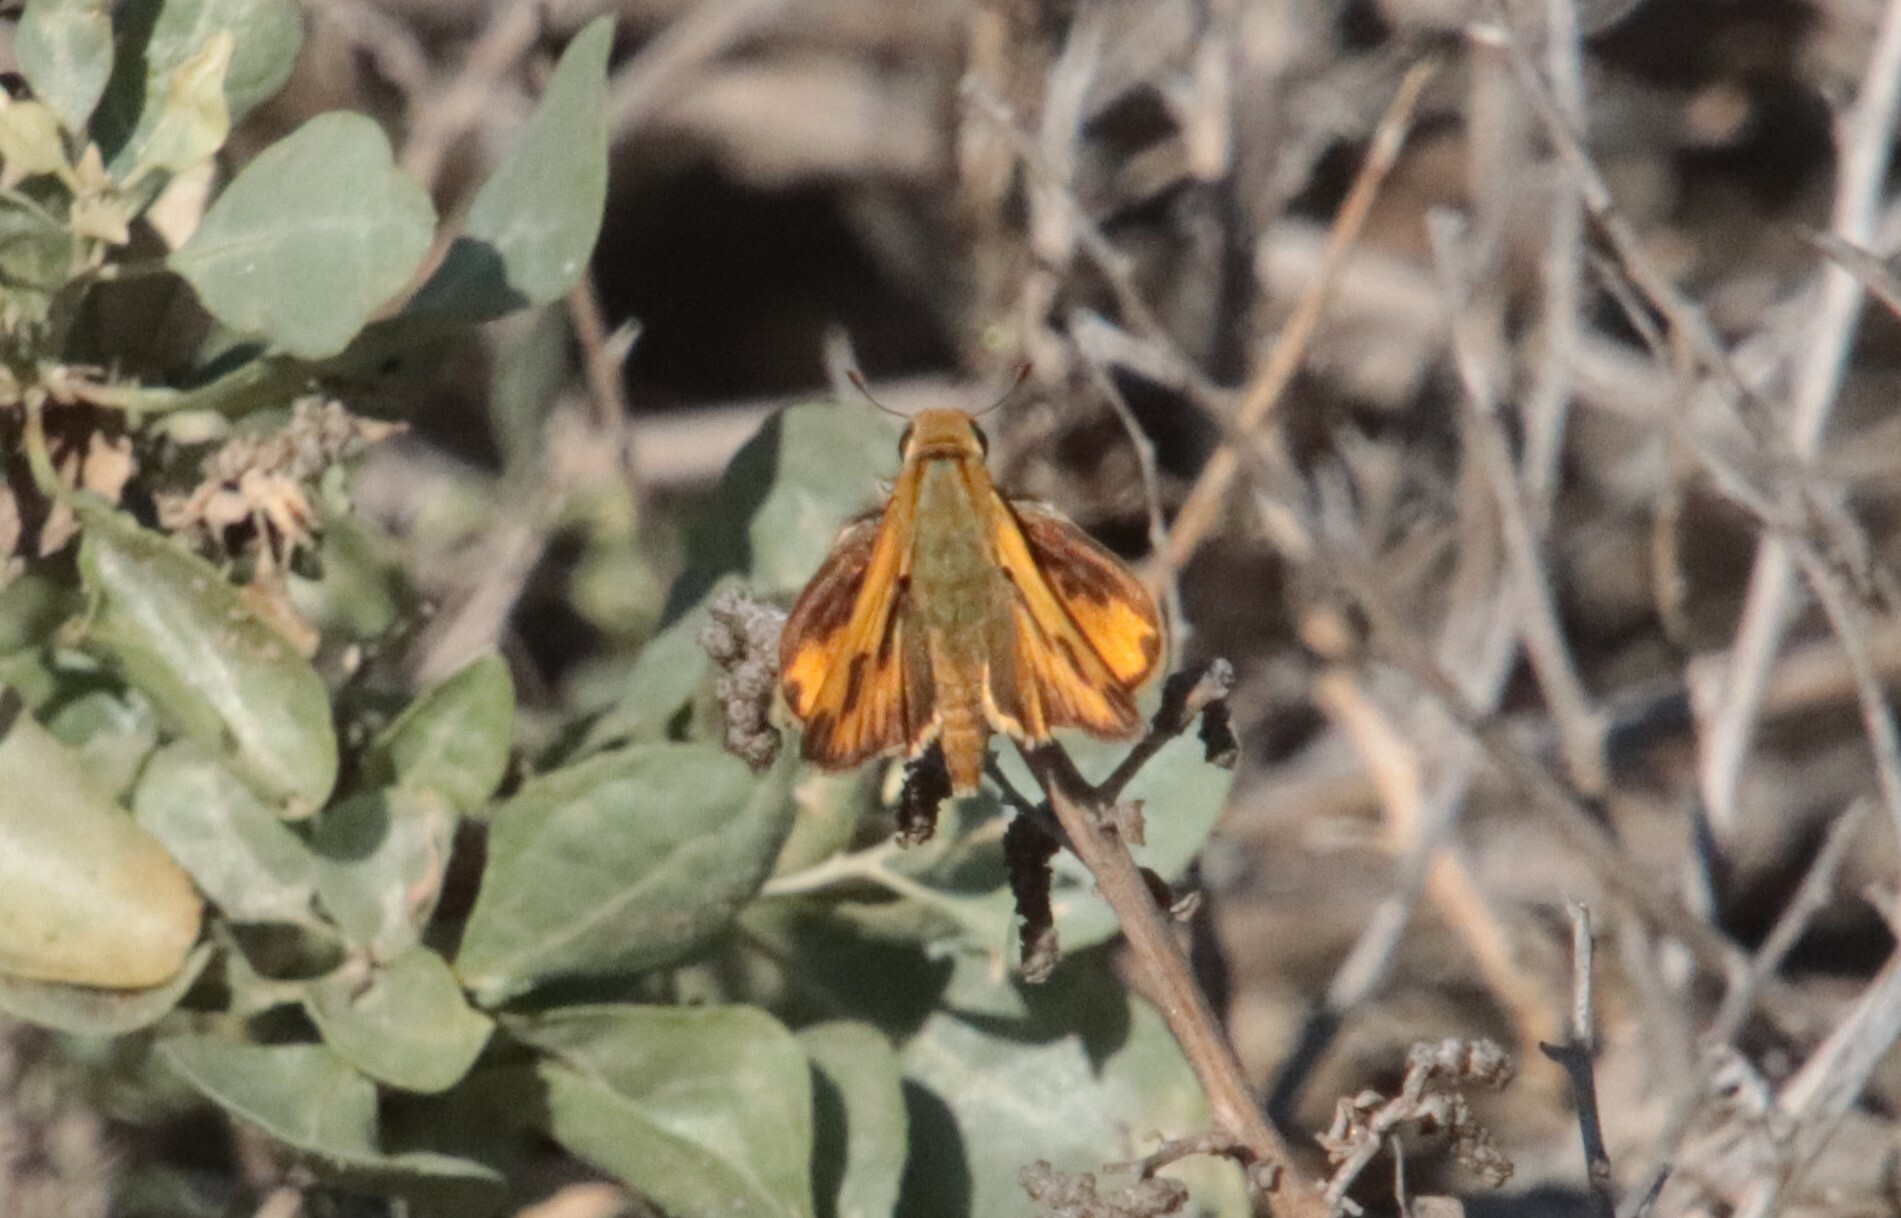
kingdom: Animalia
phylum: Arthropoda
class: Insecta
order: Lepidoptera
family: Hesperiidae
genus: Hylephila
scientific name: Hylephila phyleus
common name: Fiery skipper
